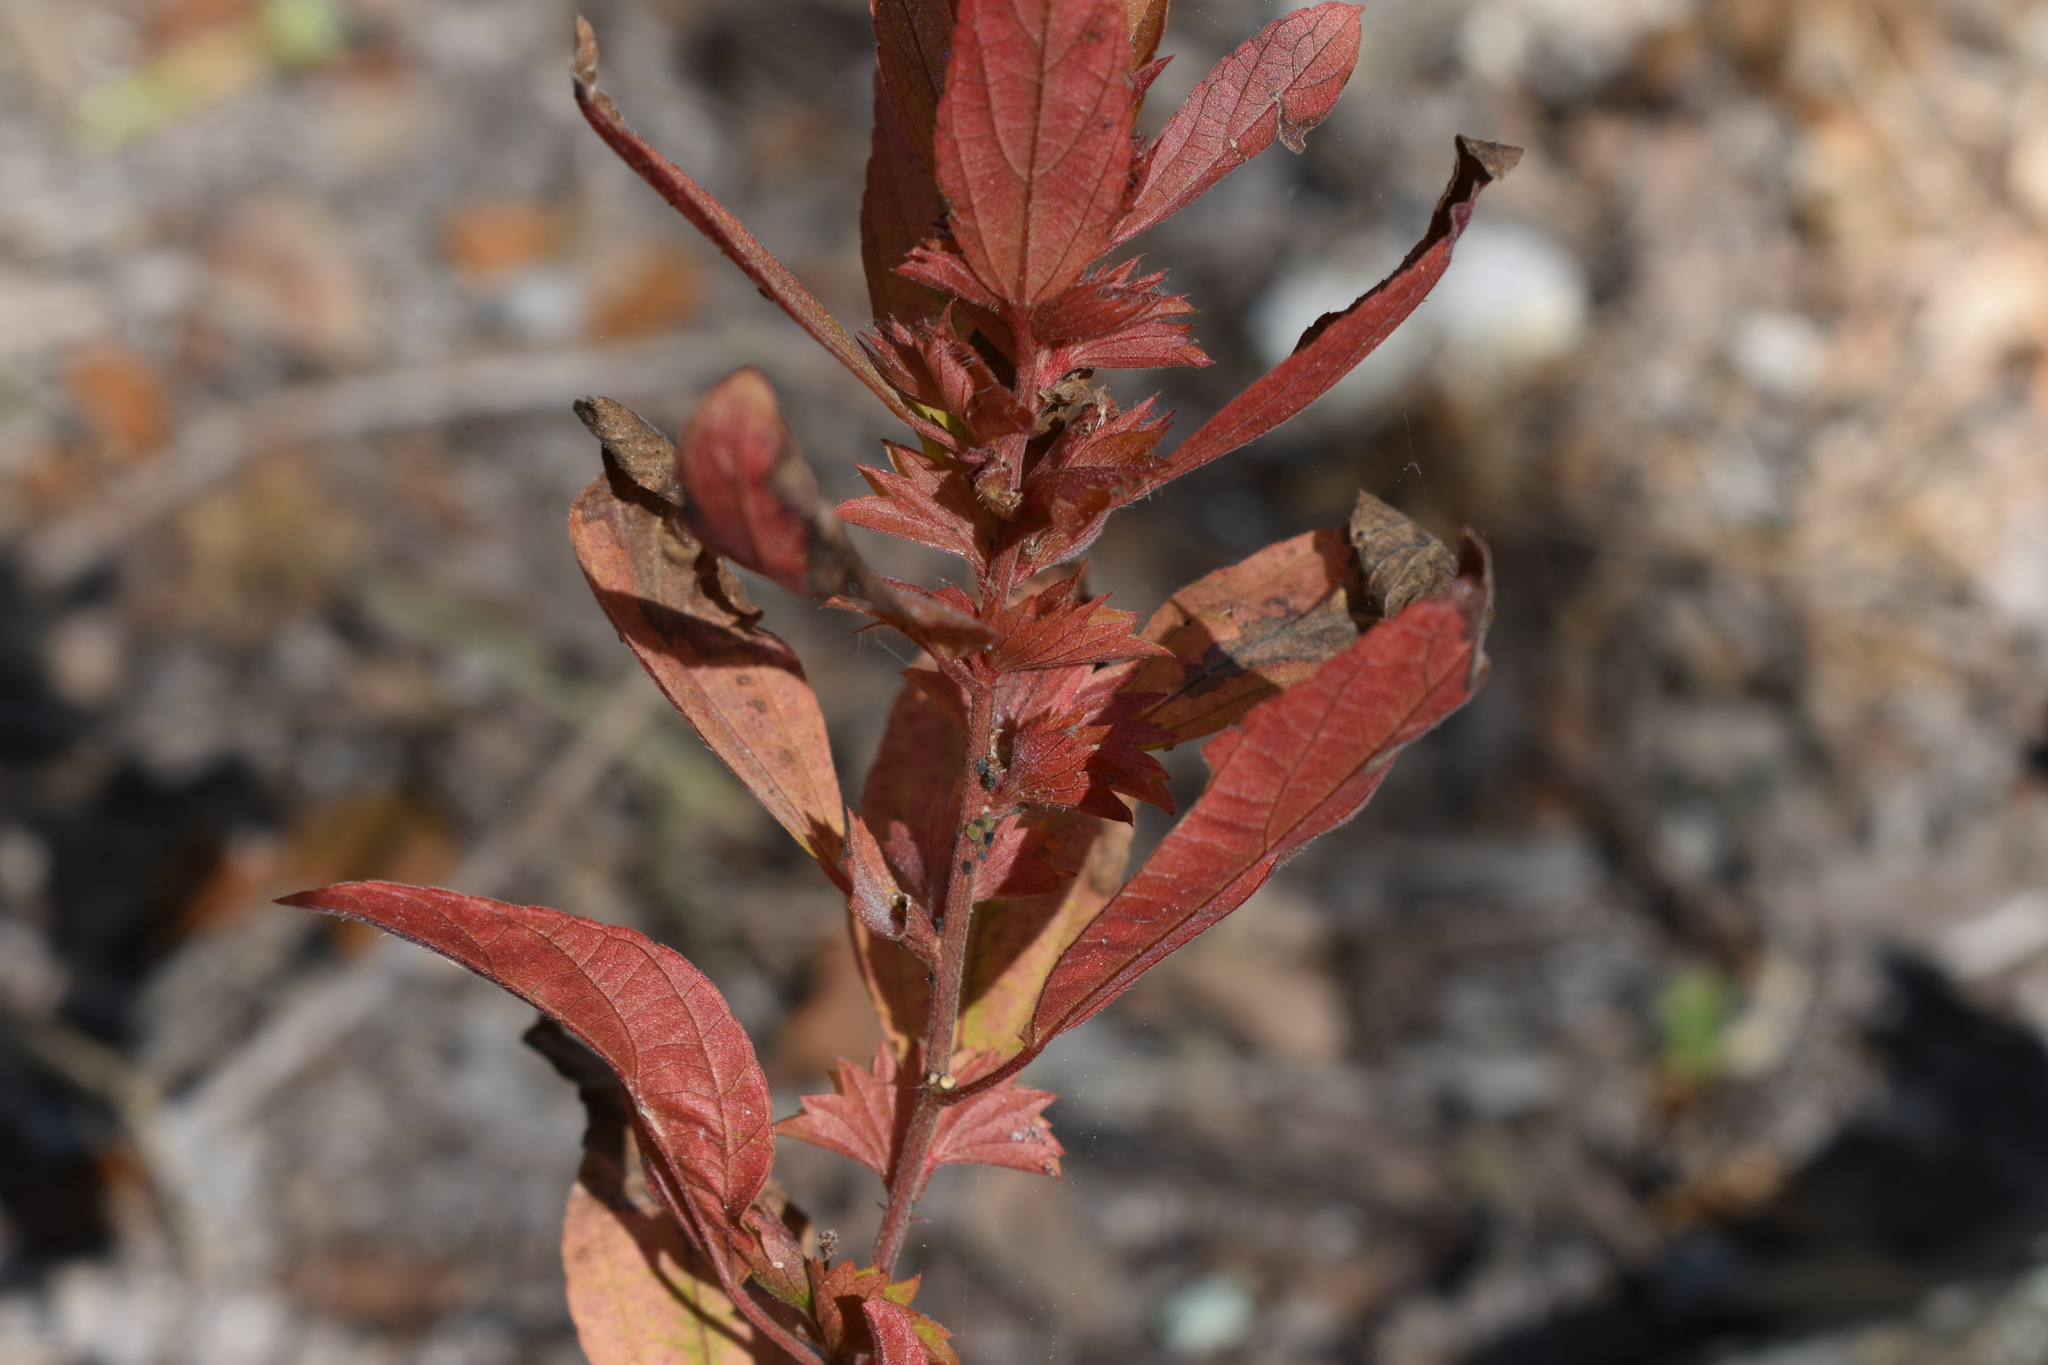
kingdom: Plantae
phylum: Tracheophyta
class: Magnoliopsida
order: Malpighiales
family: Euphorbiaceae
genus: Acalypha
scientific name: Acalypha gracilens
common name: Slender three-seeded mercury
